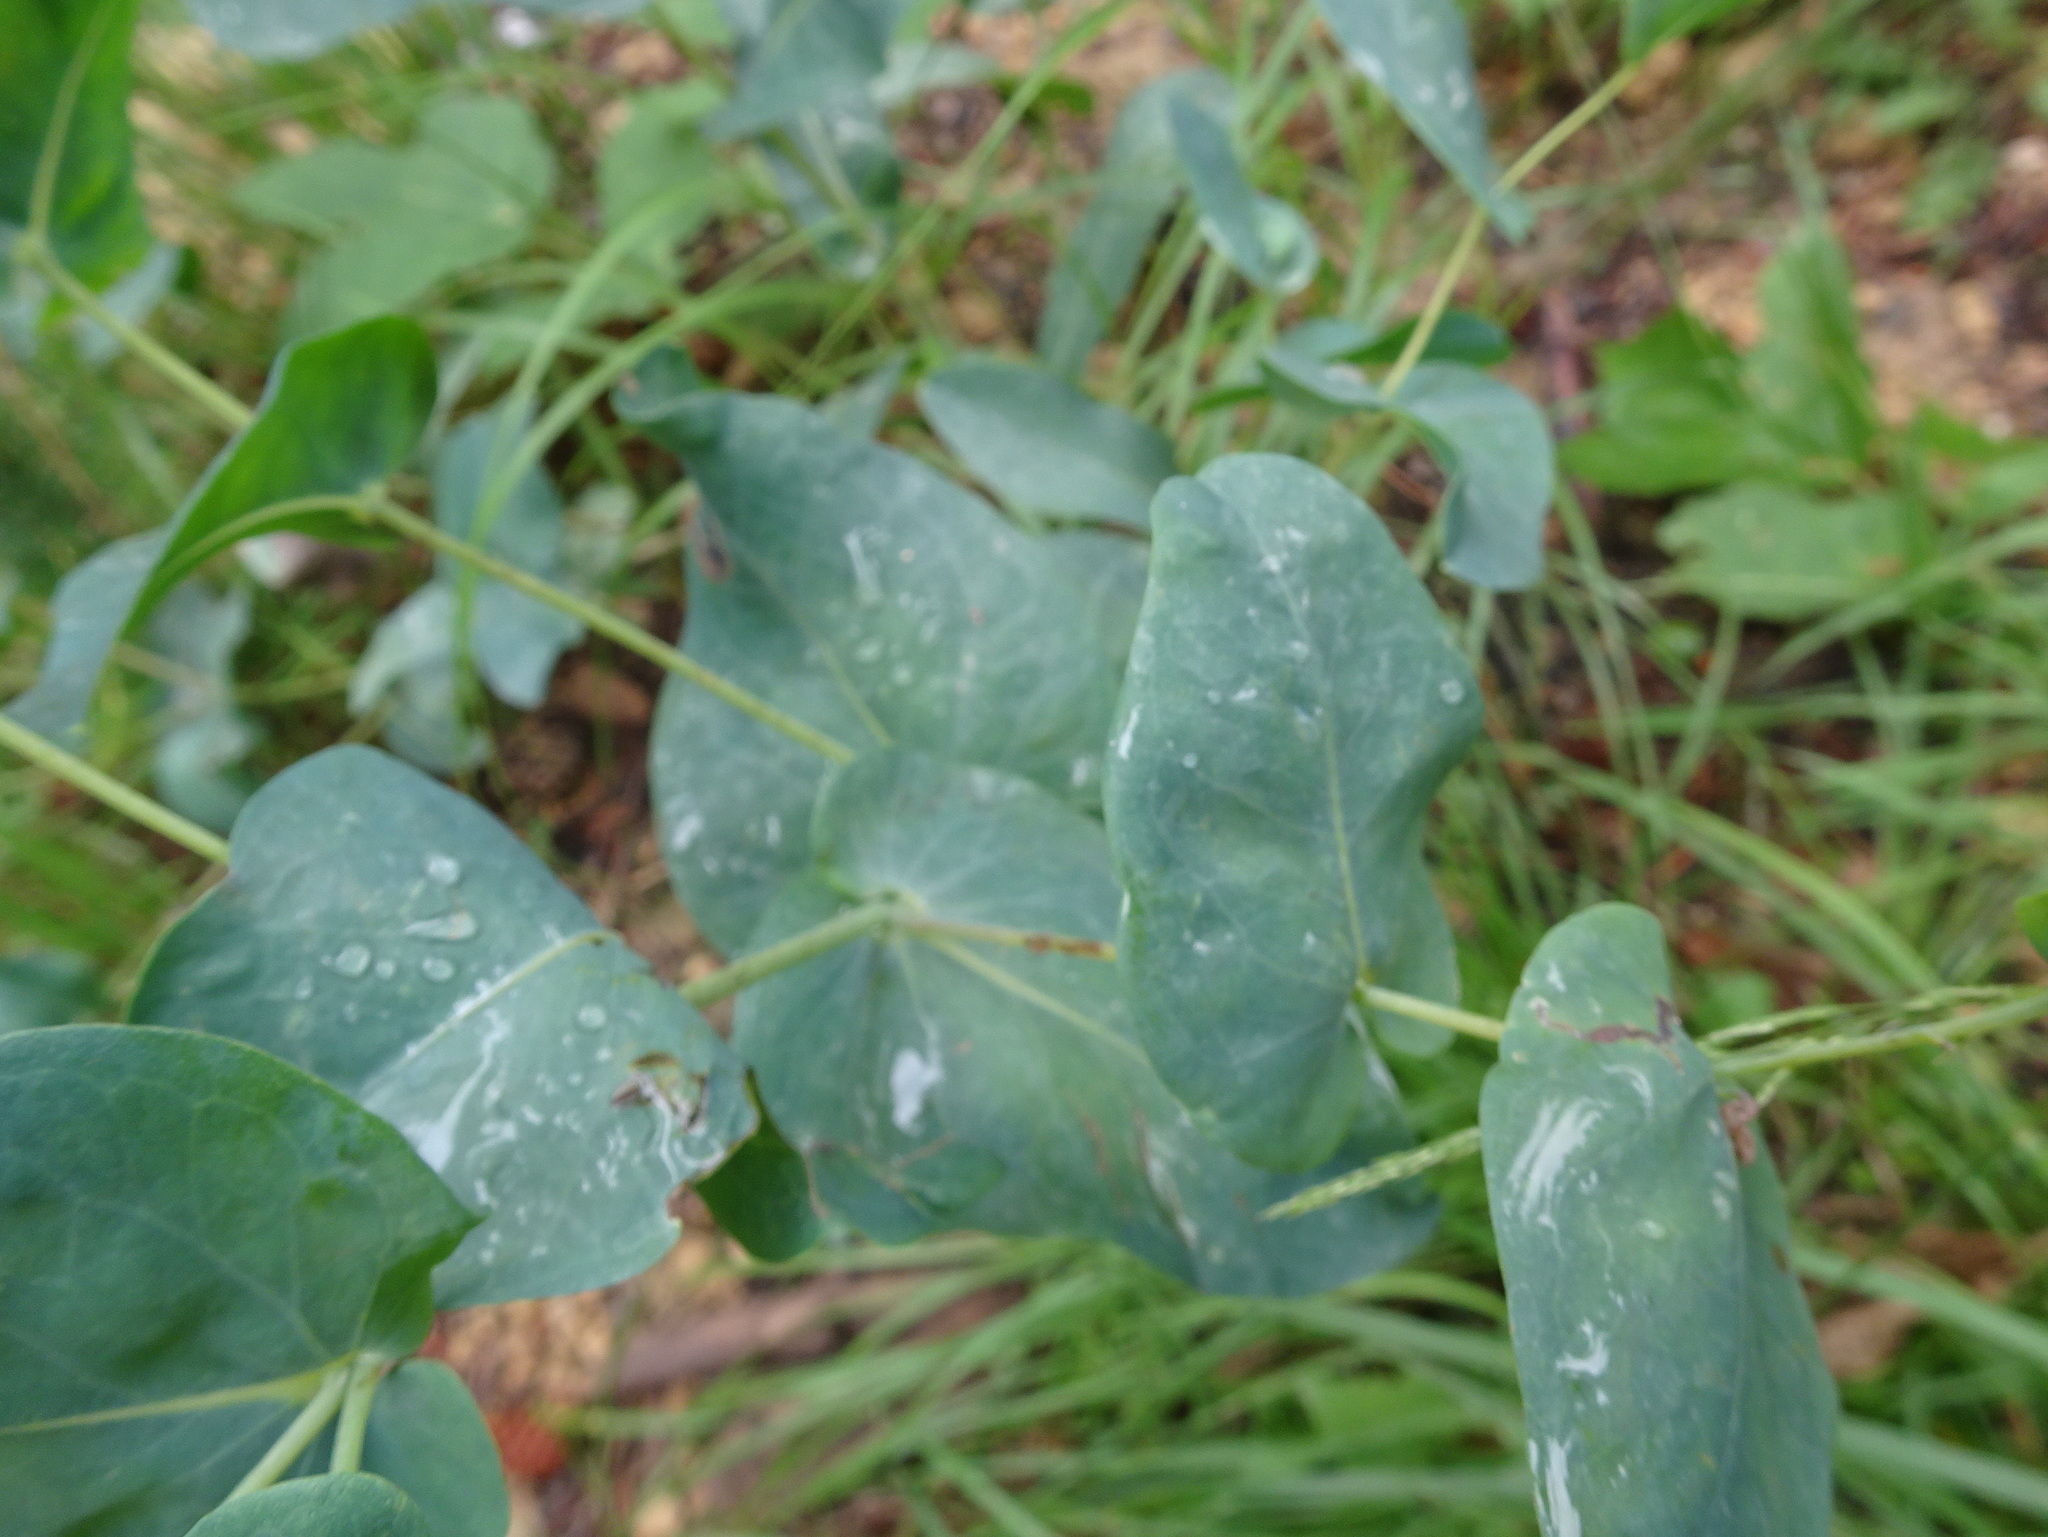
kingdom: Plantae
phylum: Tracheophyta
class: Magnoliopsida
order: Boraginales
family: Boraginaceae
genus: Cerinthe
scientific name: Cerinthe minor
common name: Lesser honeywort
